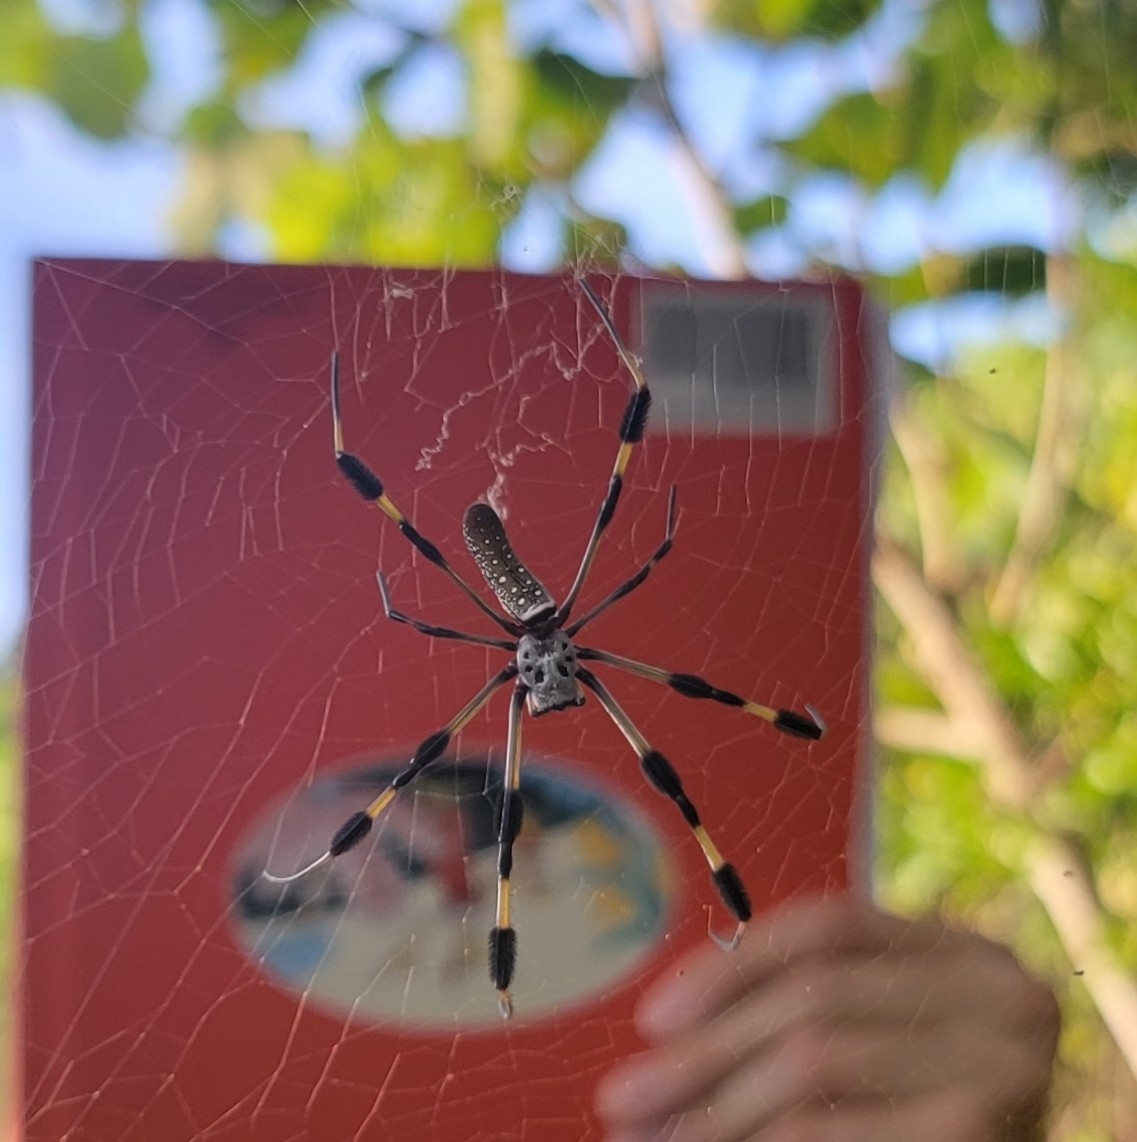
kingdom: Animalia
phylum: Arthropoda
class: Arachnida
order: Araneae
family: Araneidae
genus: Trichonephila
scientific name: Trichonephila clavipes
